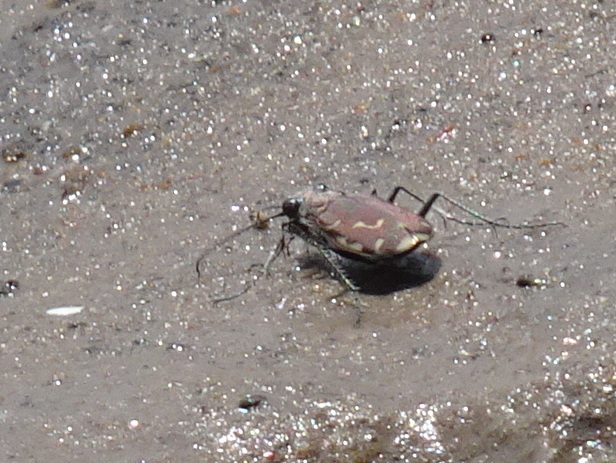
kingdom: Animalia
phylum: Arthropoda
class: Insecta
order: Coleoptera
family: Carabidae
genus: Cicindela
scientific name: Cicindela repanda
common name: Bronzed tiger beetle
